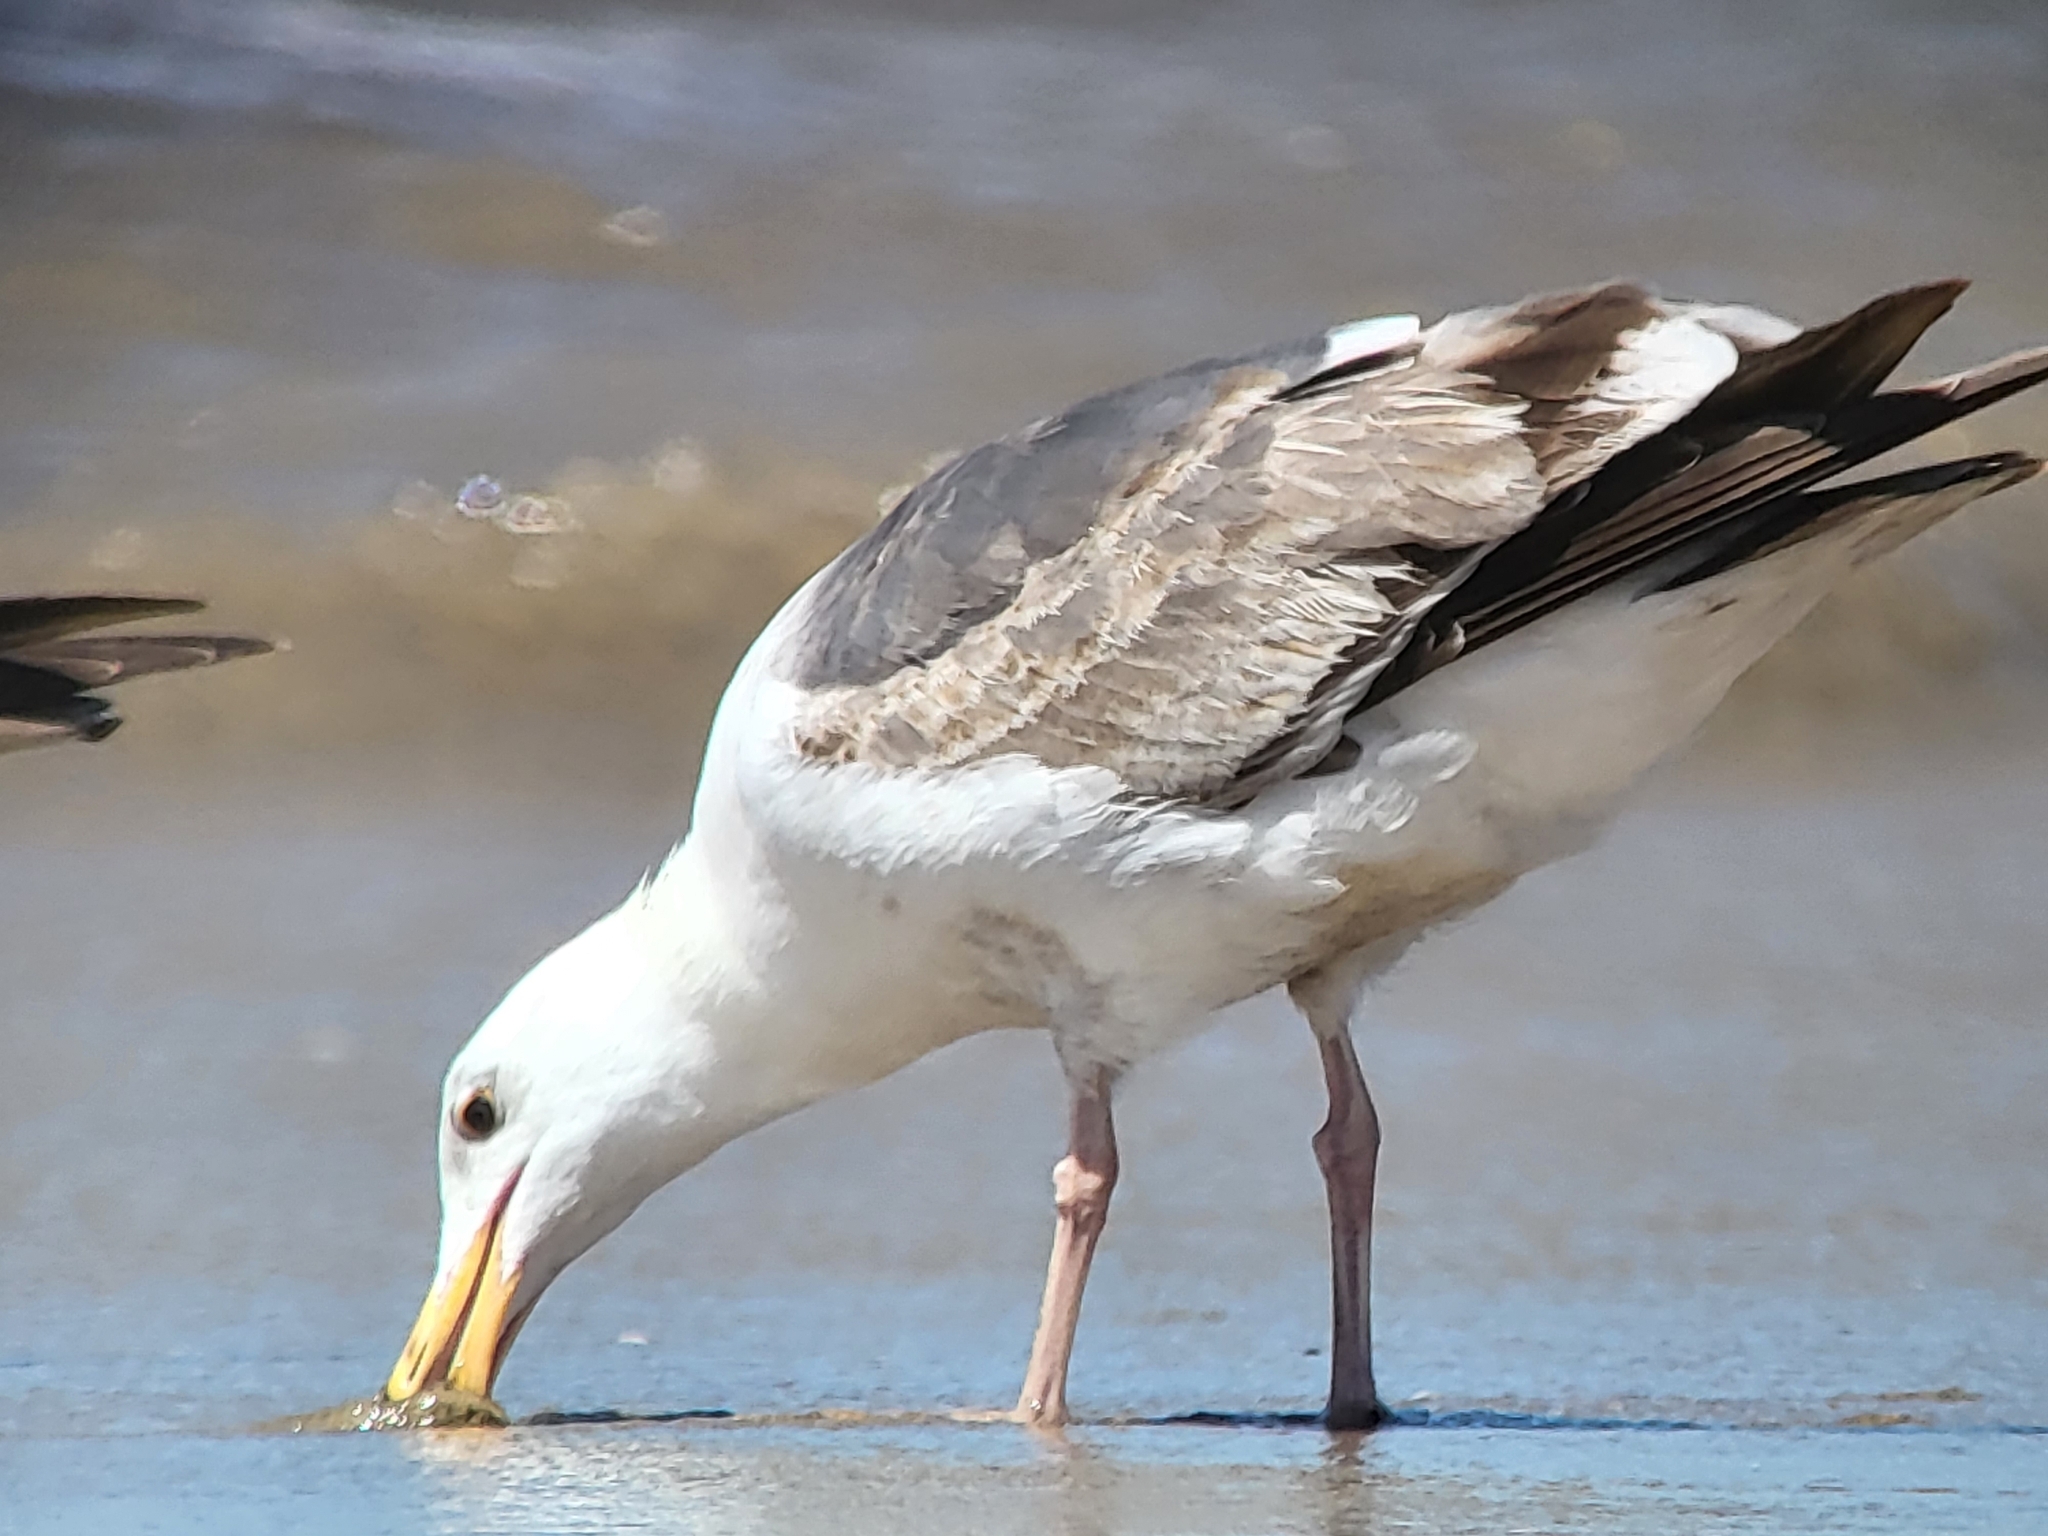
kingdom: Animalia
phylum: Chordata
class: Aves
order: Charadriiformes
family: Laridae
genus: Larus
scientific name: Larus occidentalis
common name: Western gull
